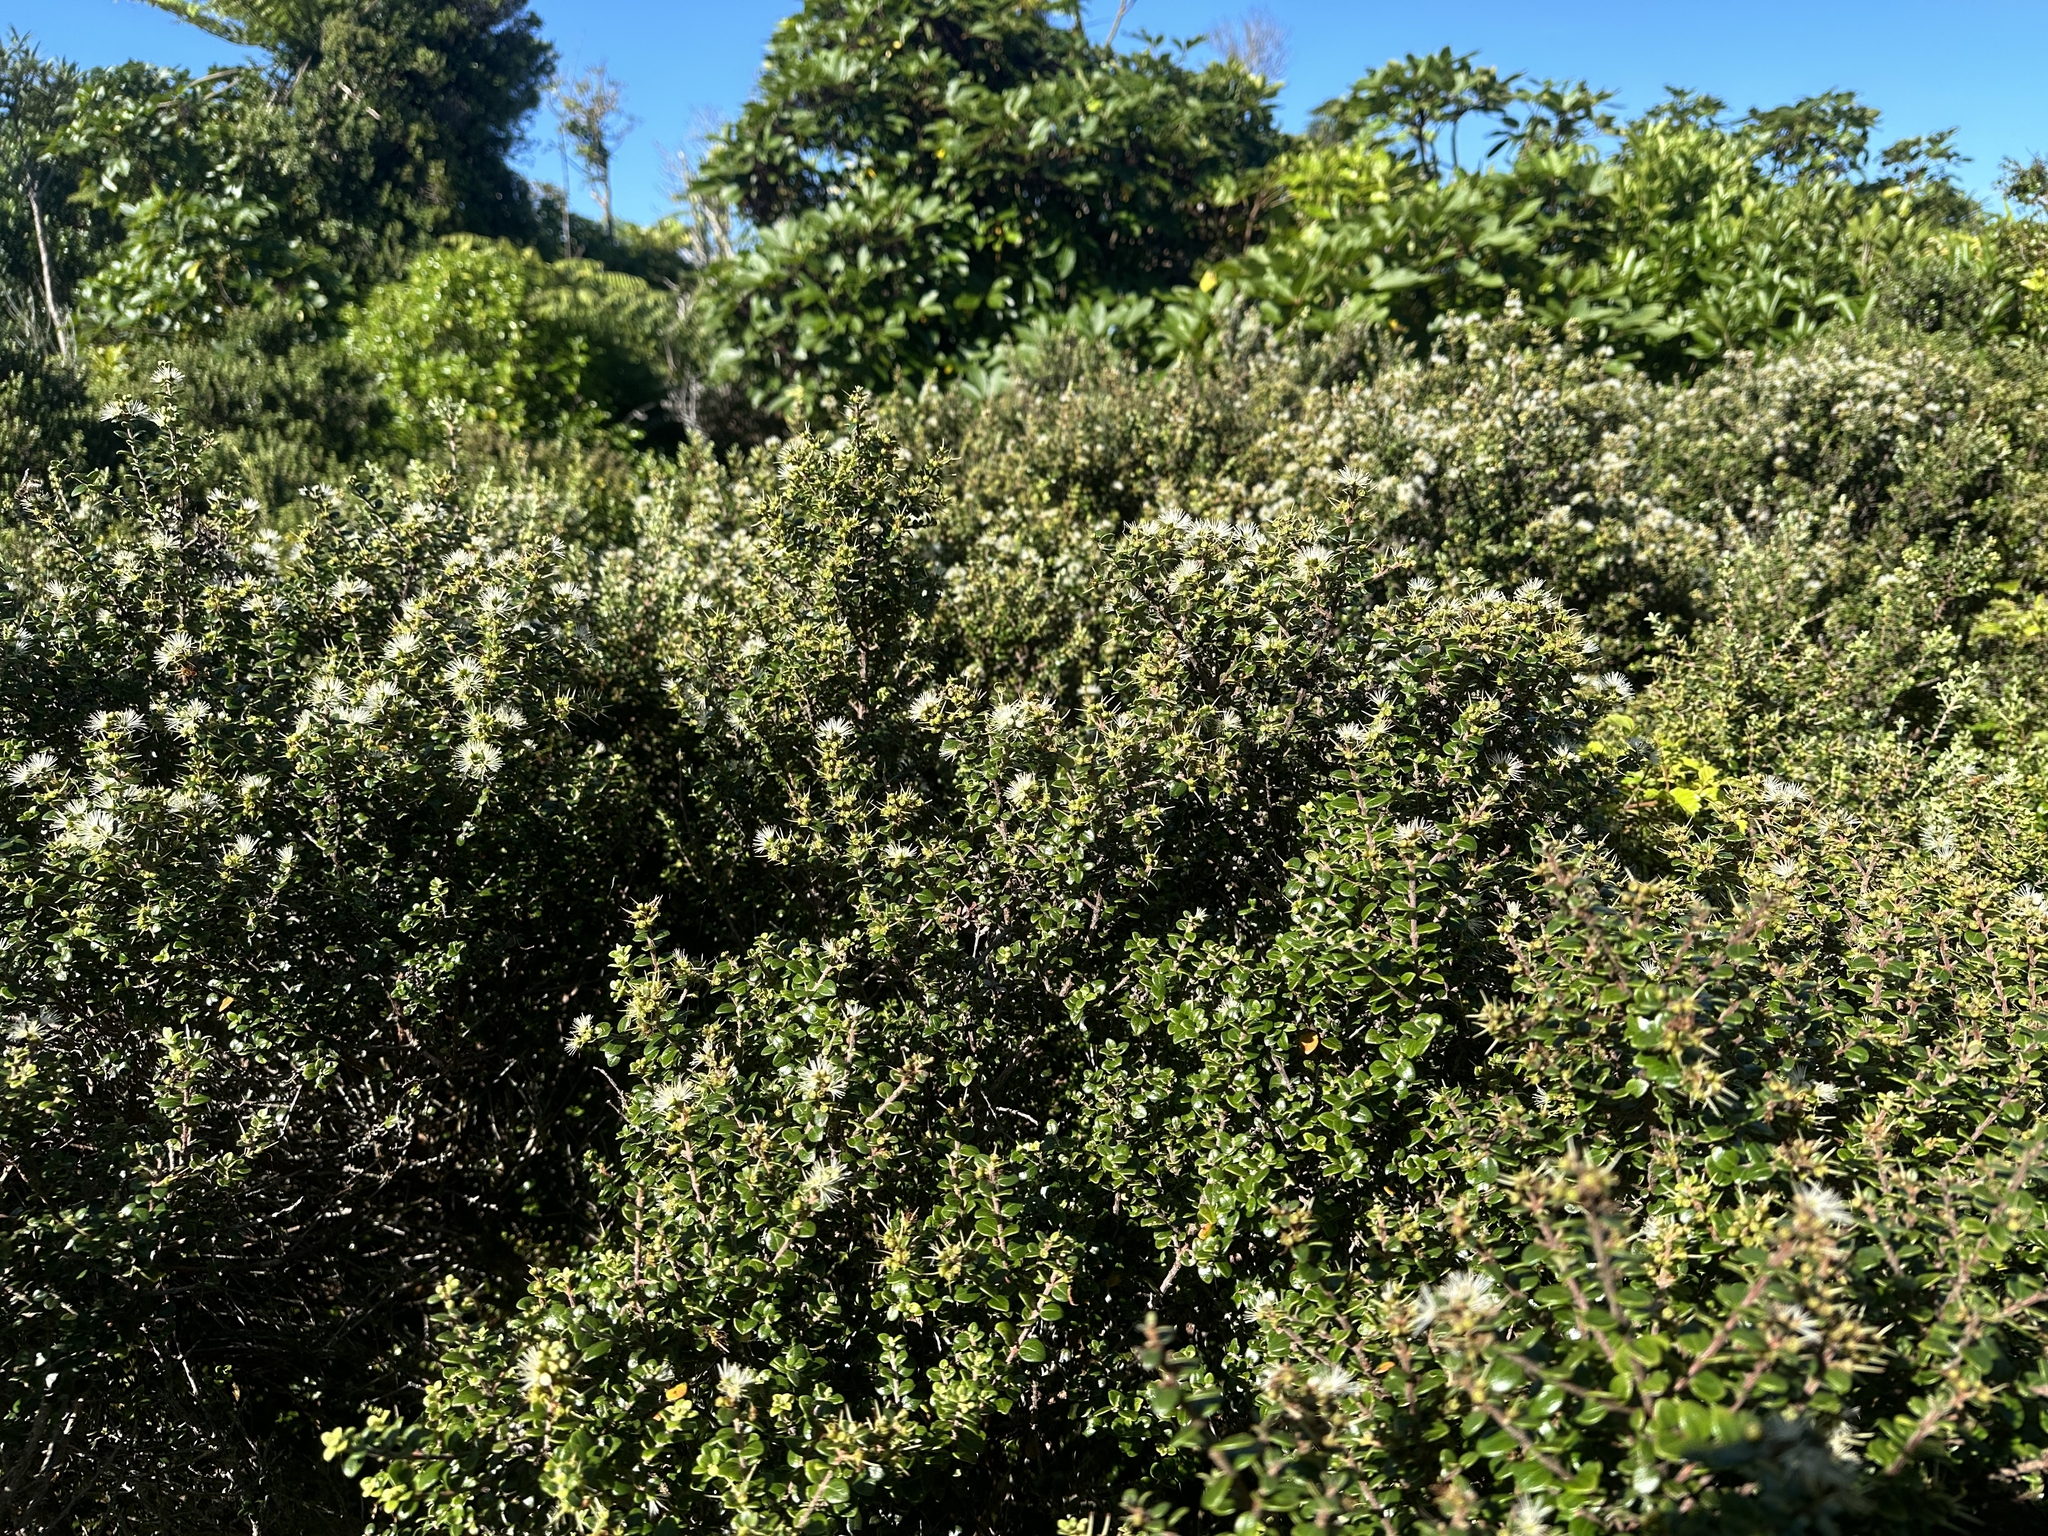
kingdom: Plantae
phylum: Tracheophyta
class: Magnoliopsida
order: Myrtales
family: Myrtaceae
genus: Metrosideros
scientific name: Metrosideros perforata
